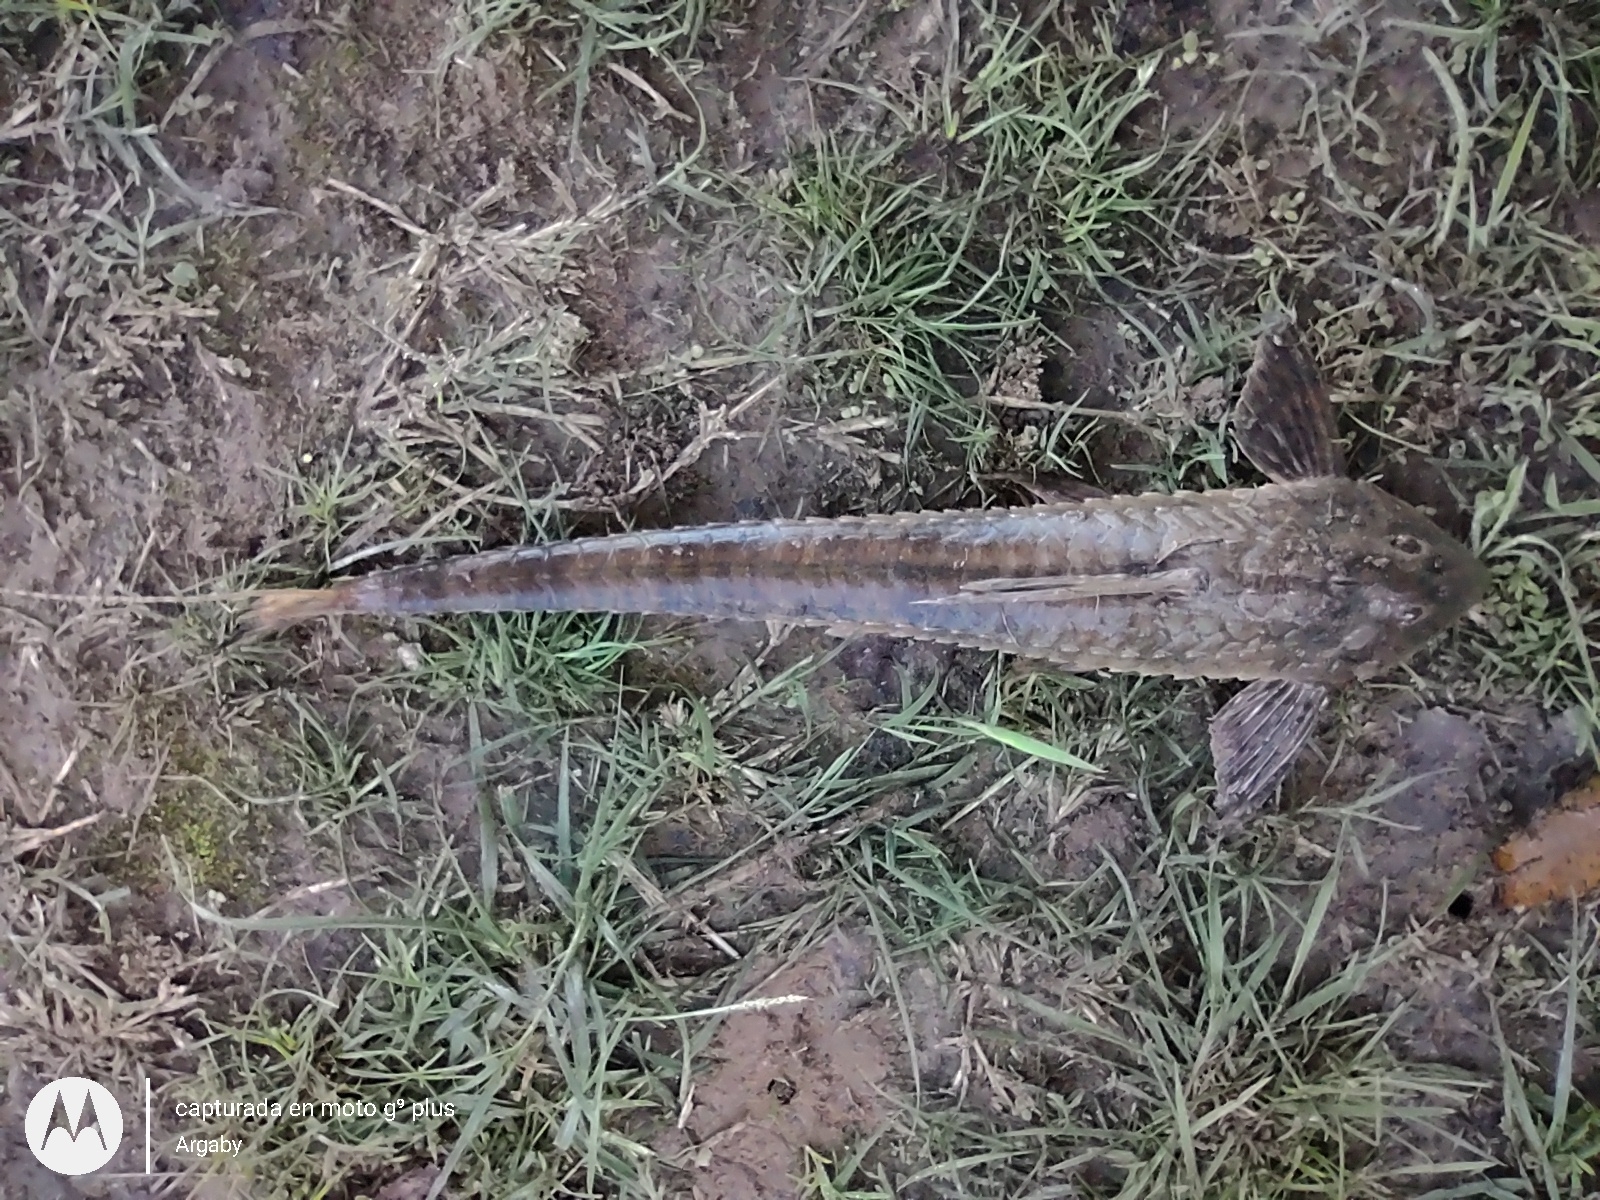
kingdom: Animalia
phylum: Chordata
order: Siluriformes
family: Loricariidae
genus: Brochiloricaria
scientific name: Brochiloricaria chauliodon
